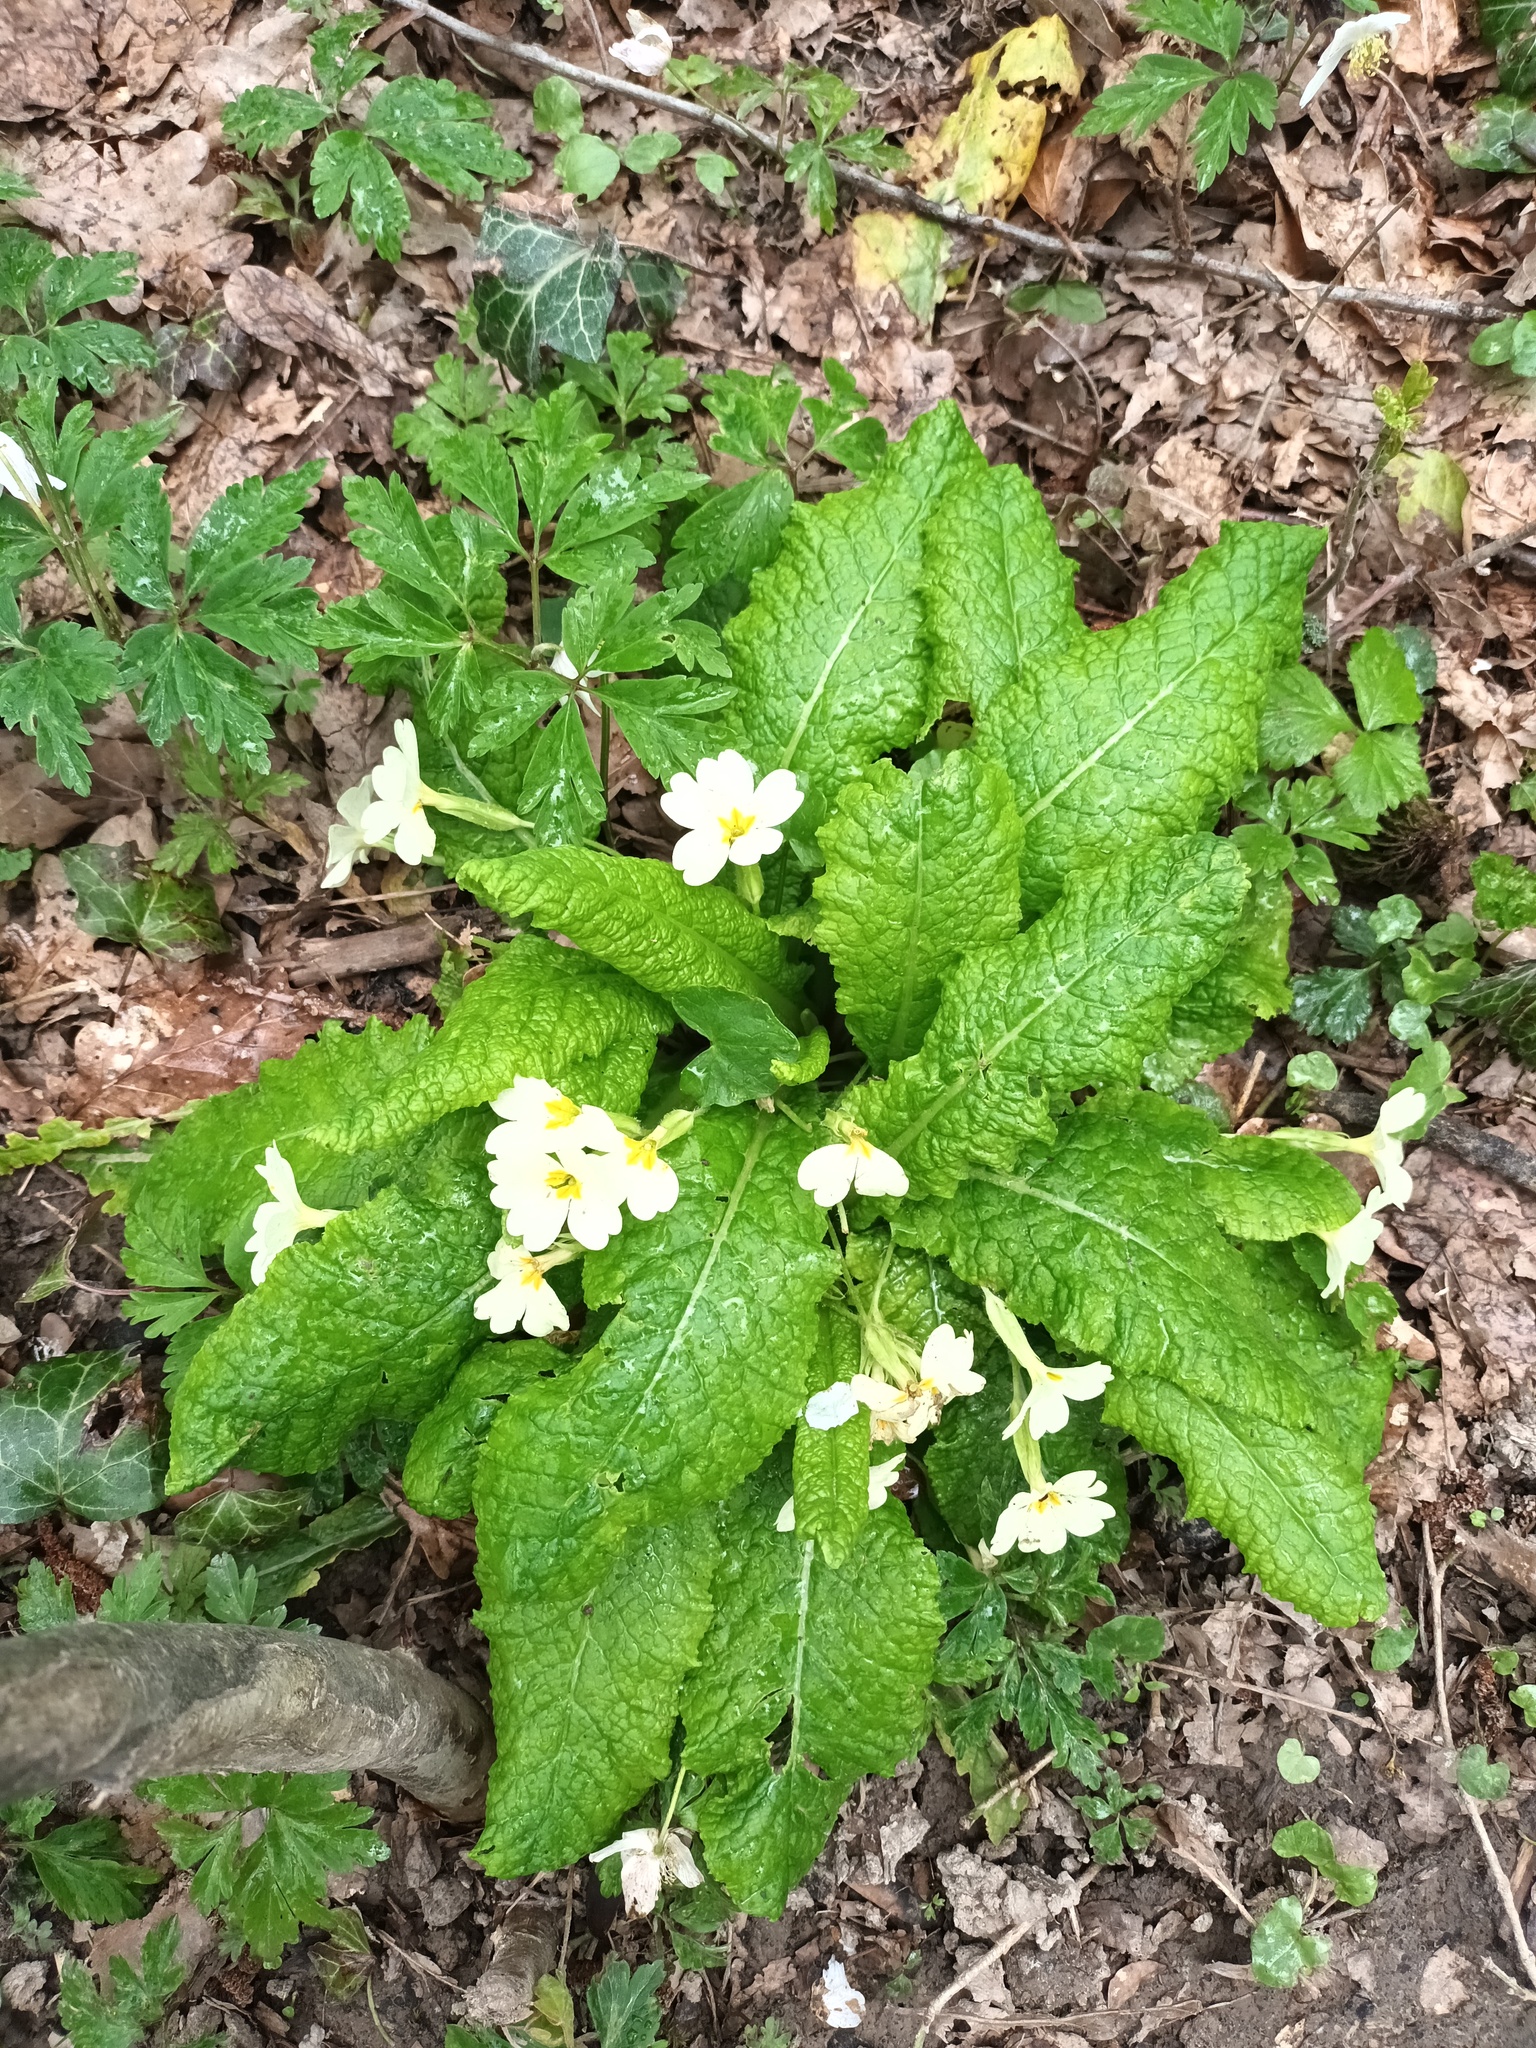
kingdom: Plantae
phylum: Tracheophyta
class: Magnoliopsida
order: Ericales
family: Primulaceae
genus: Primula
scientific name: Primula vulgaris
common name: Primrose
